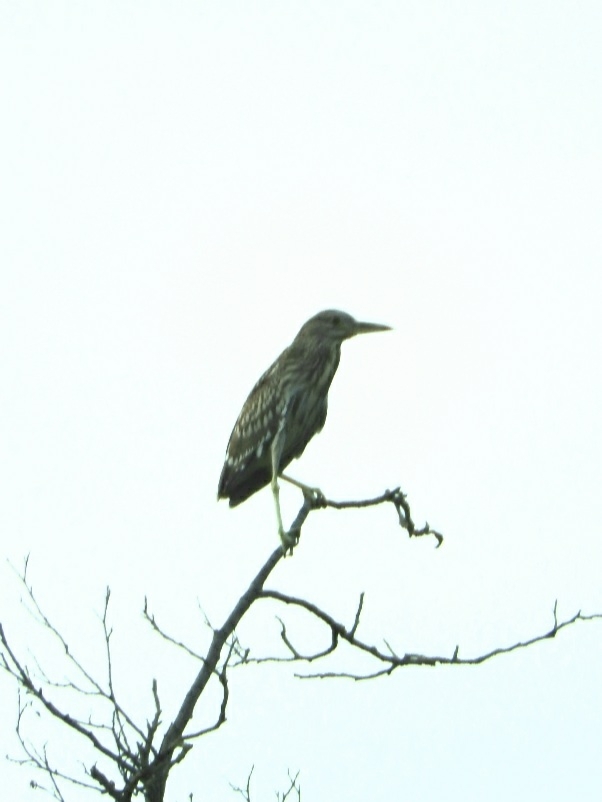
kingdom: Animalia
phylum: Chordata
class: Aves
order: Pelecaniformes
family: Ardeidae
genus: Nycticorax
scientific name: Nycticorax nycticorax
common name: Black-crowned night heron
